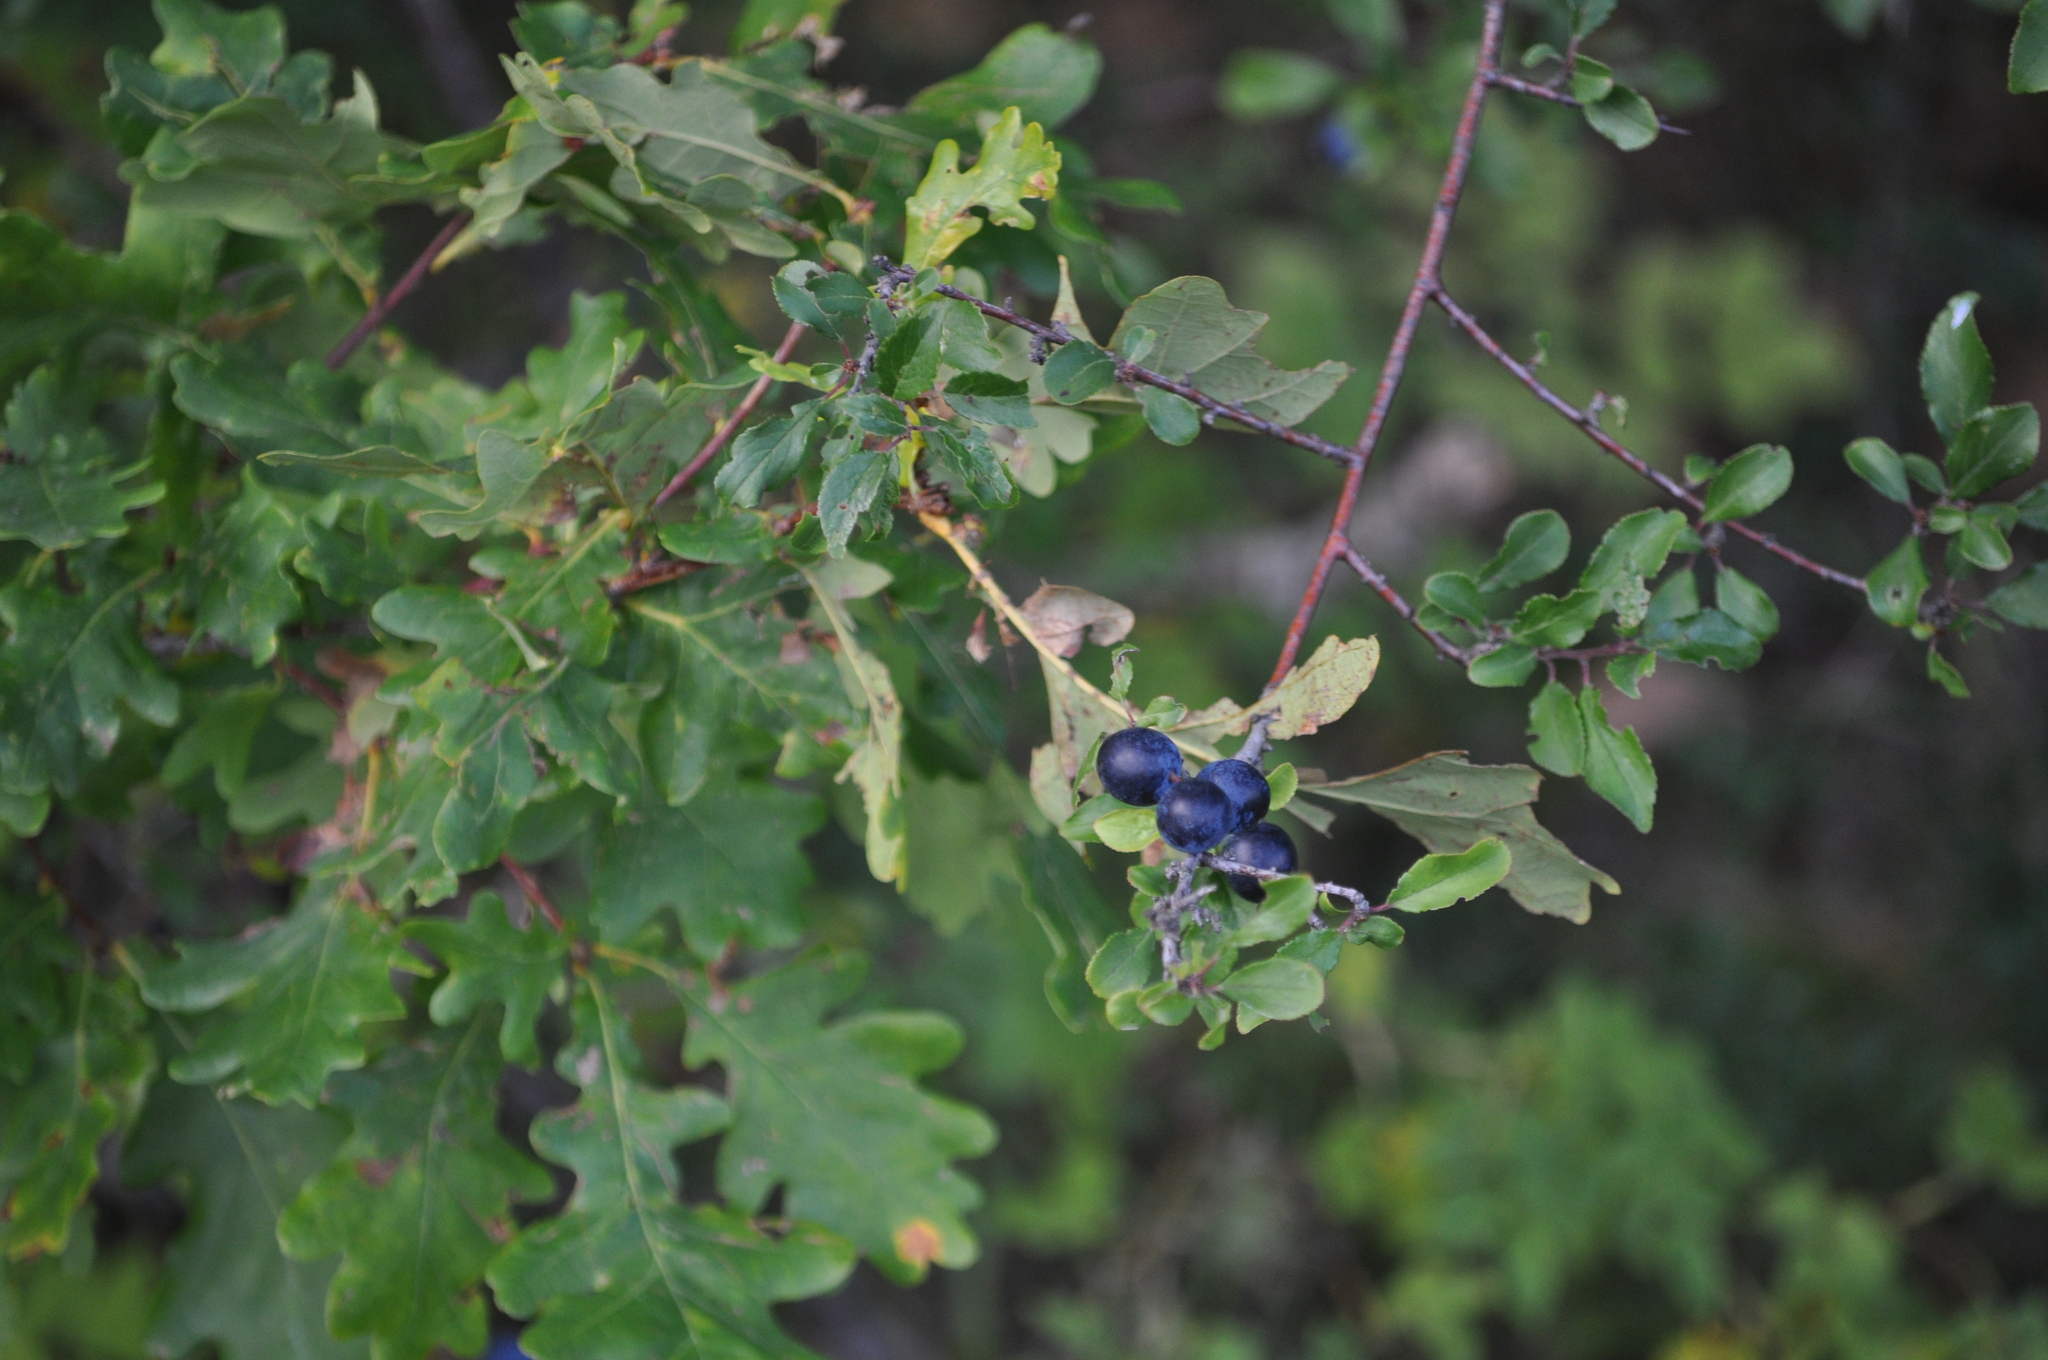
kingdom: Plantae
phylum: Tracheophyta
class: Magnoliopsida
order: Rosales
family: Rosaceae
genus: Prunus
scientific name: Prunus spinosa
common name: Blackthorn
